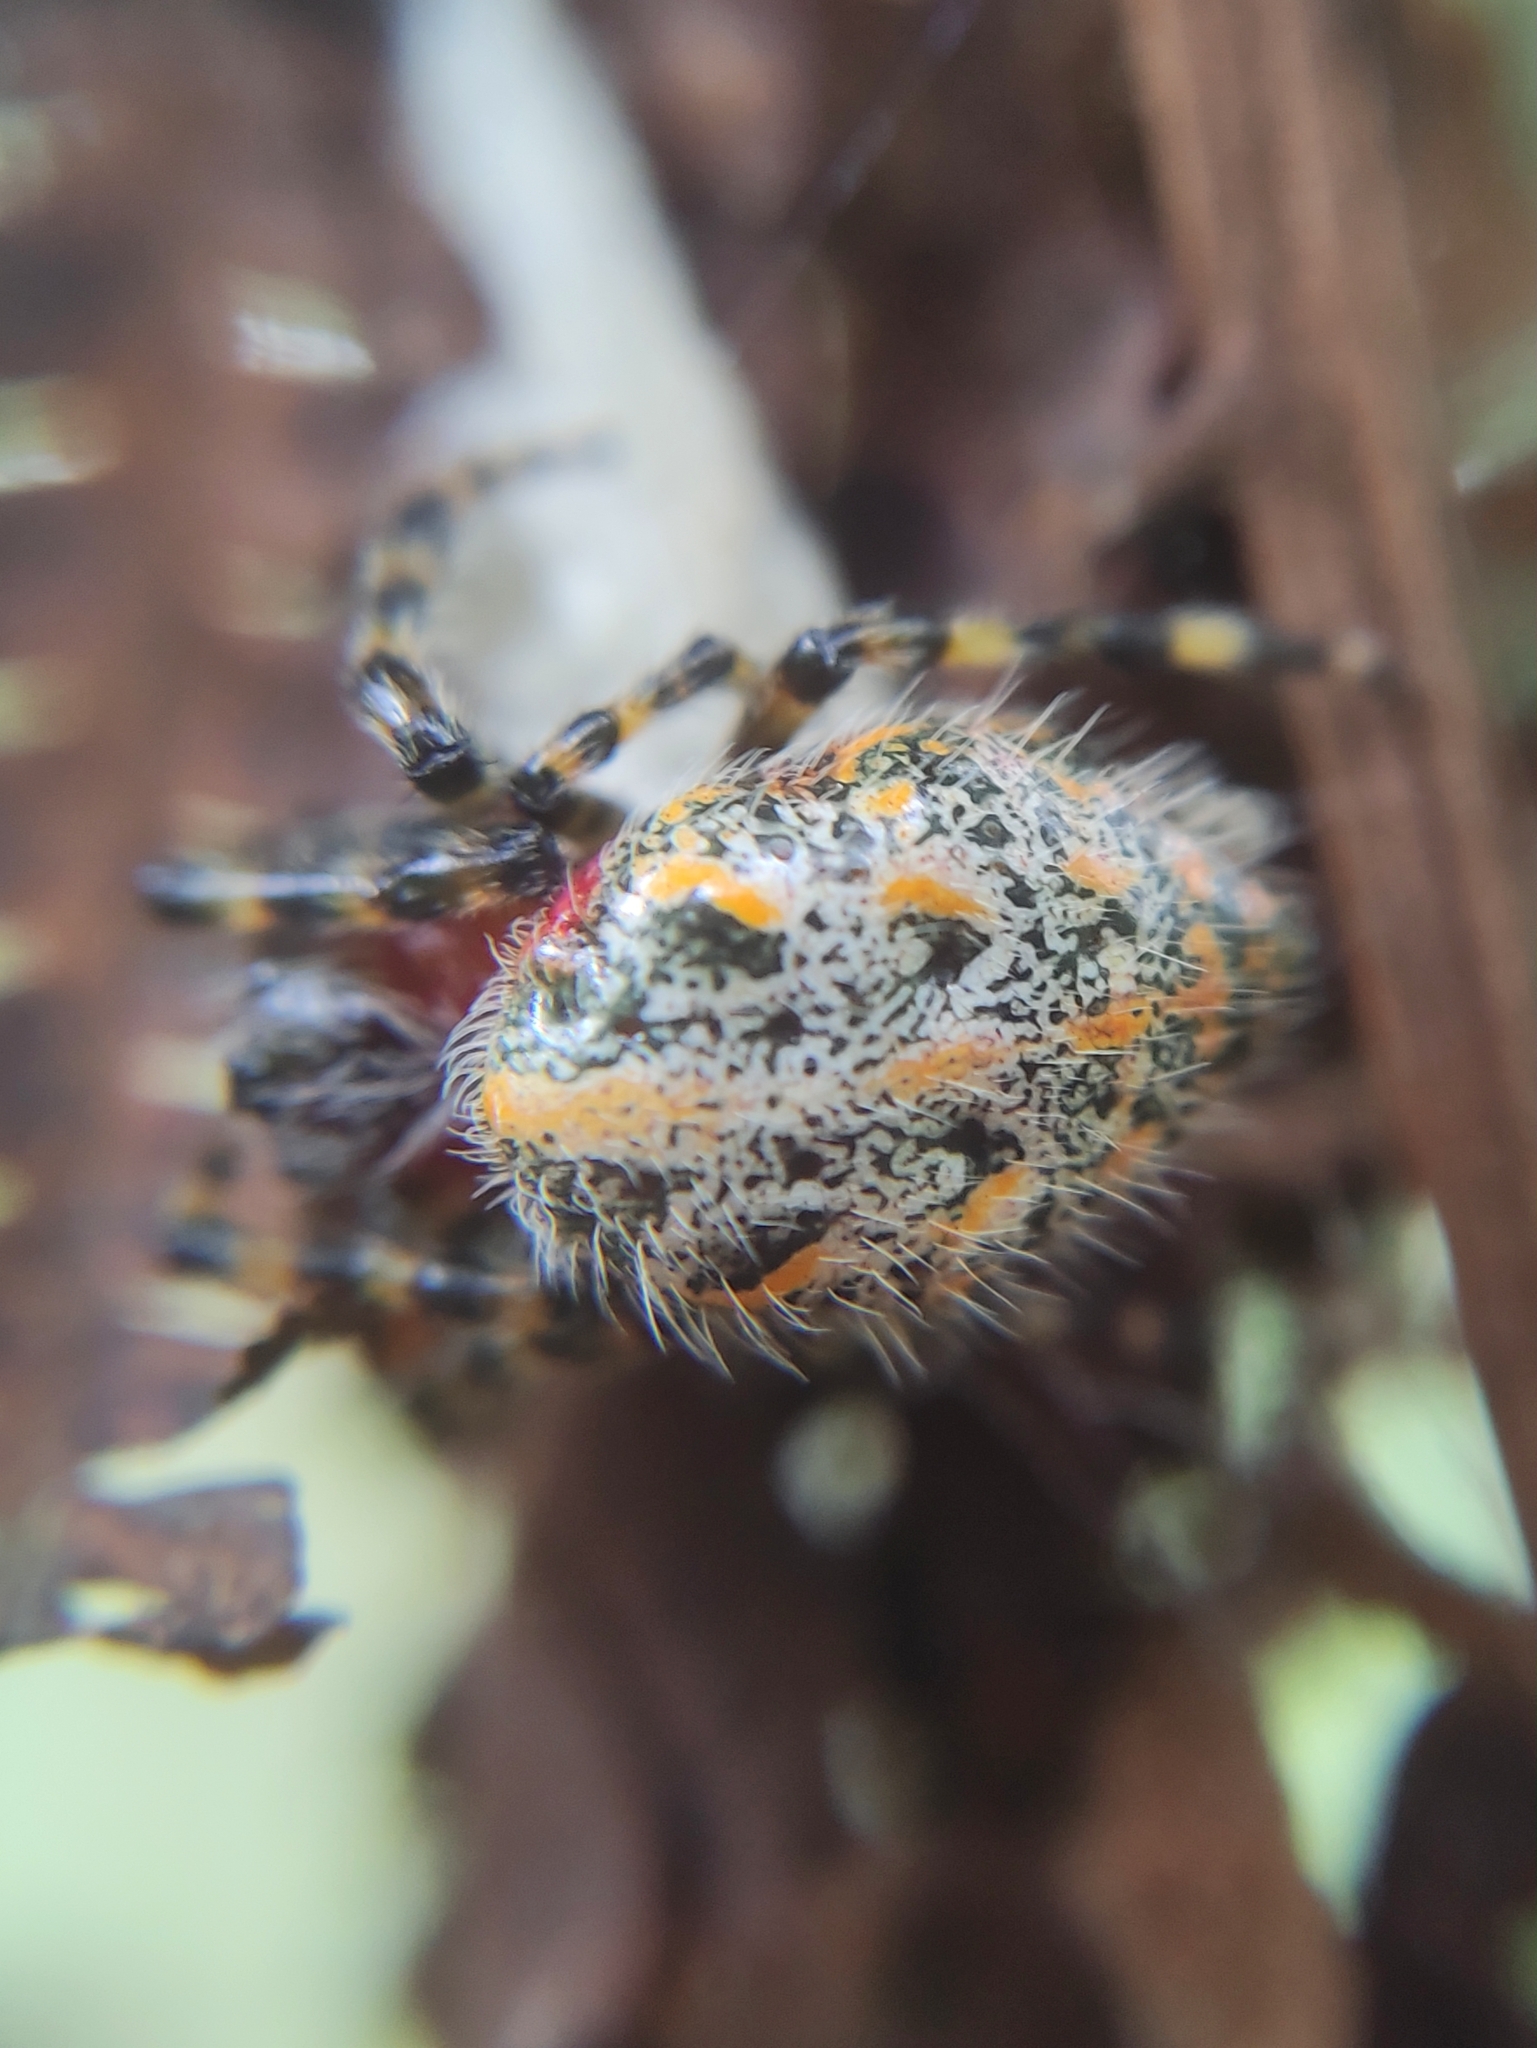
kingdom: Animalia
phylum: Arthropoda
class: Arachnida
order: Araneae
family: Araneidae
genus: Alpaida
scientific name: Alpaida alticeps
